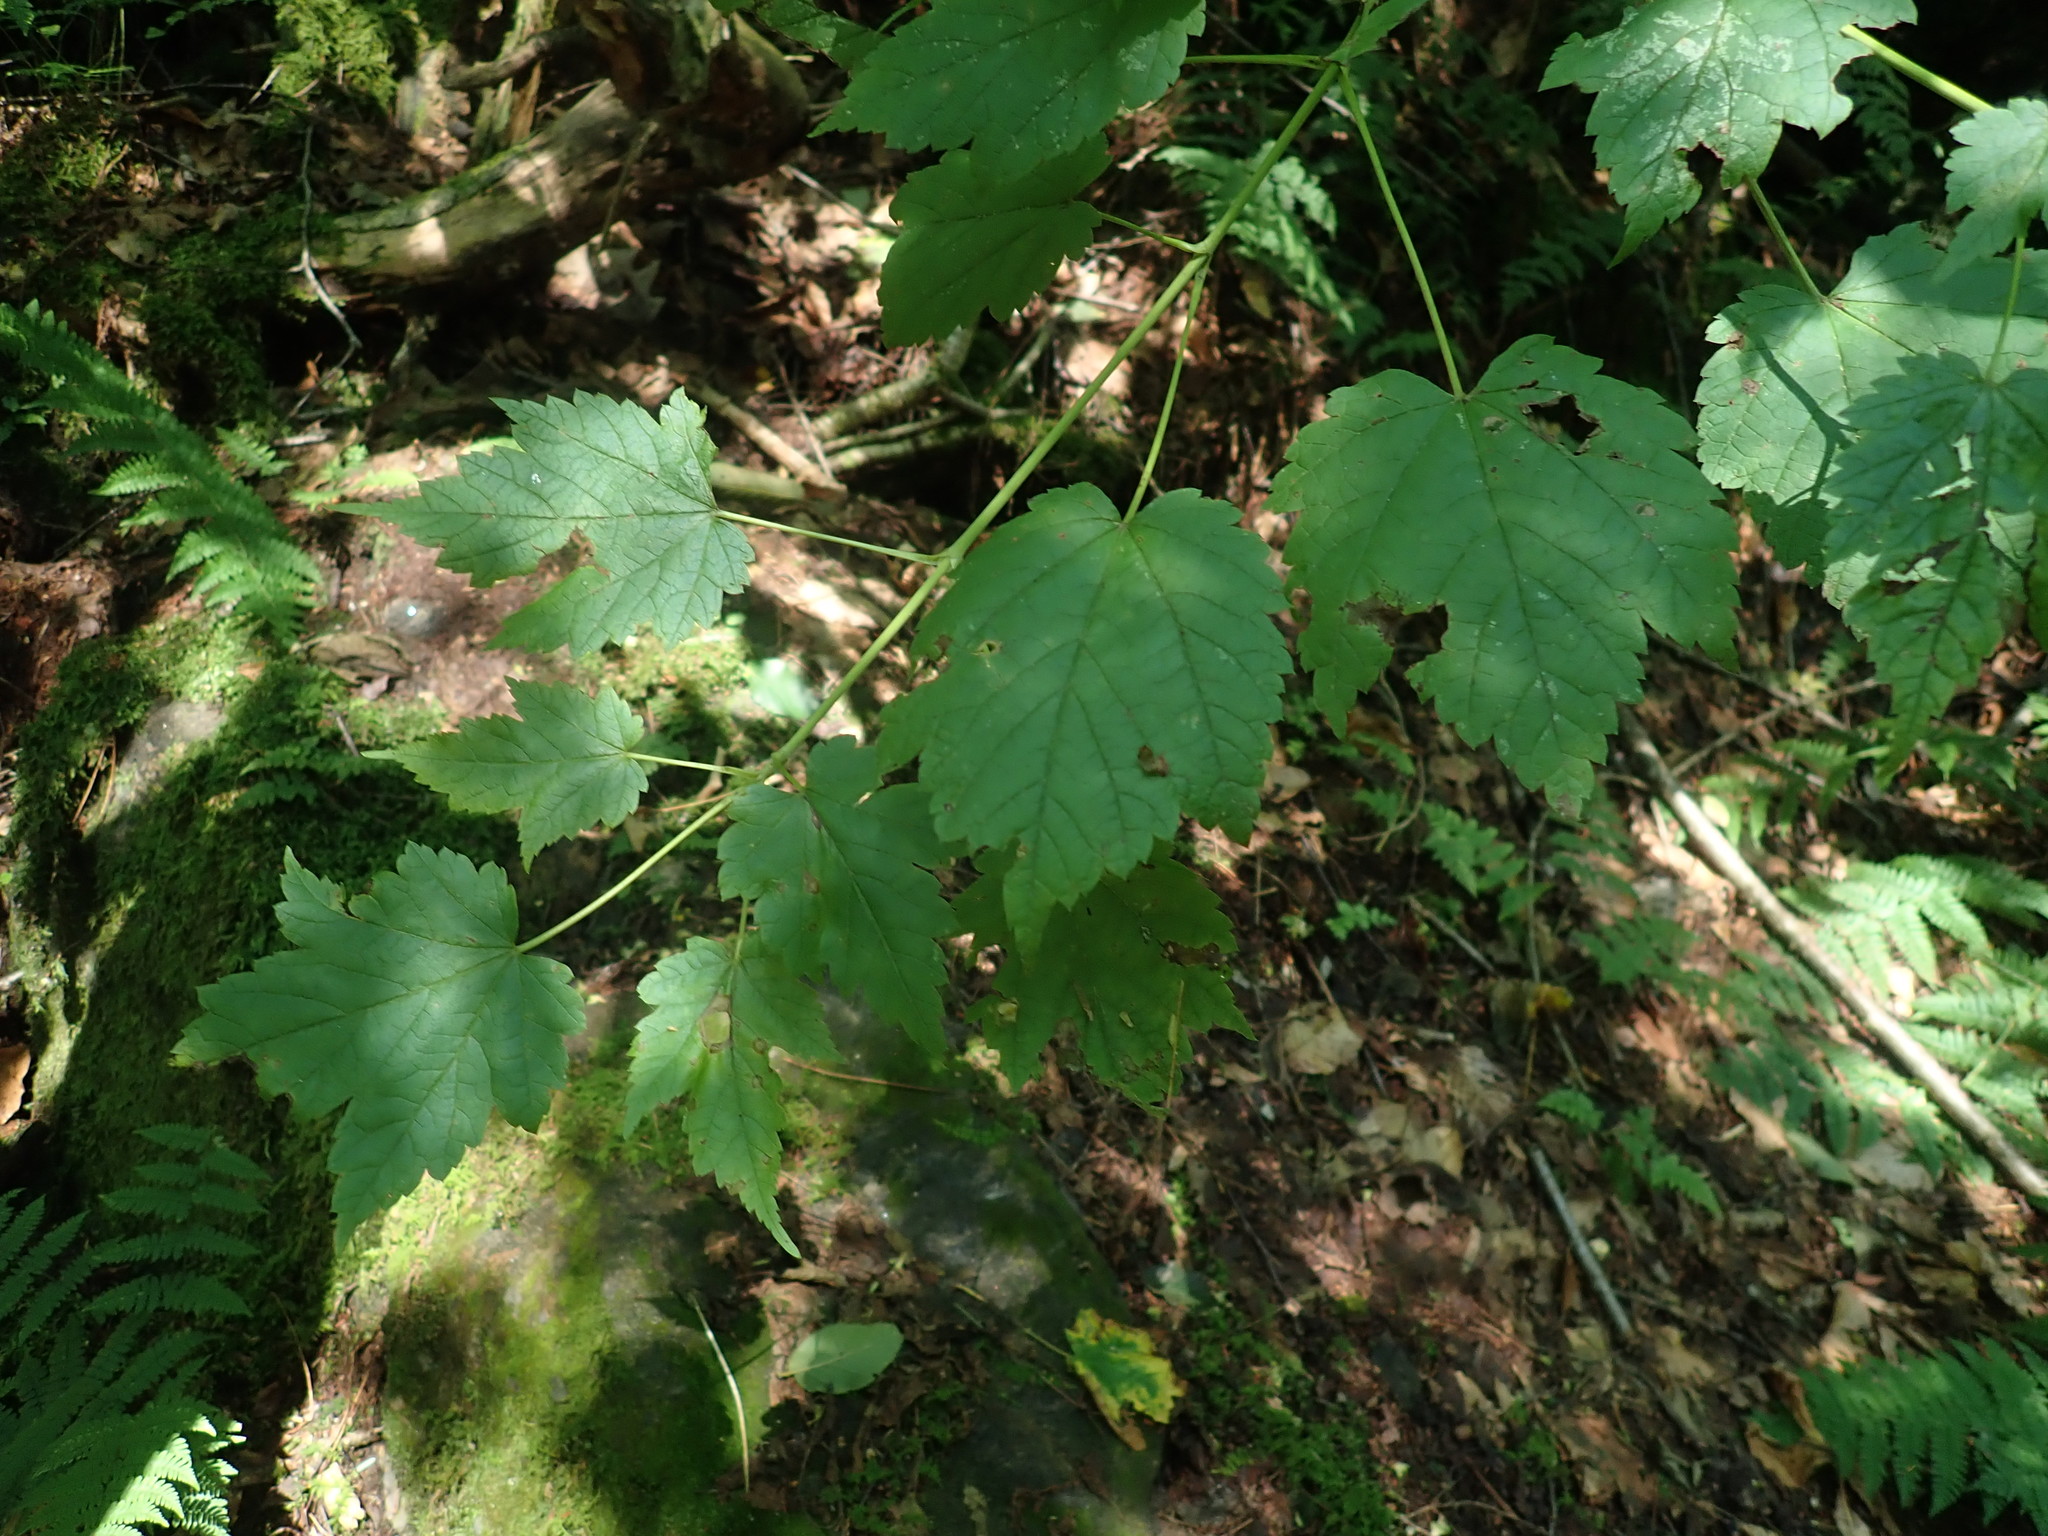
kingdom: Plantae
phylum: Tracheophyta
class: Magnoliopsida
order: Sapindales
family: Sapindaceae
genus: Acer
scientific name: Acer spicatum
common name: Mountain maple
